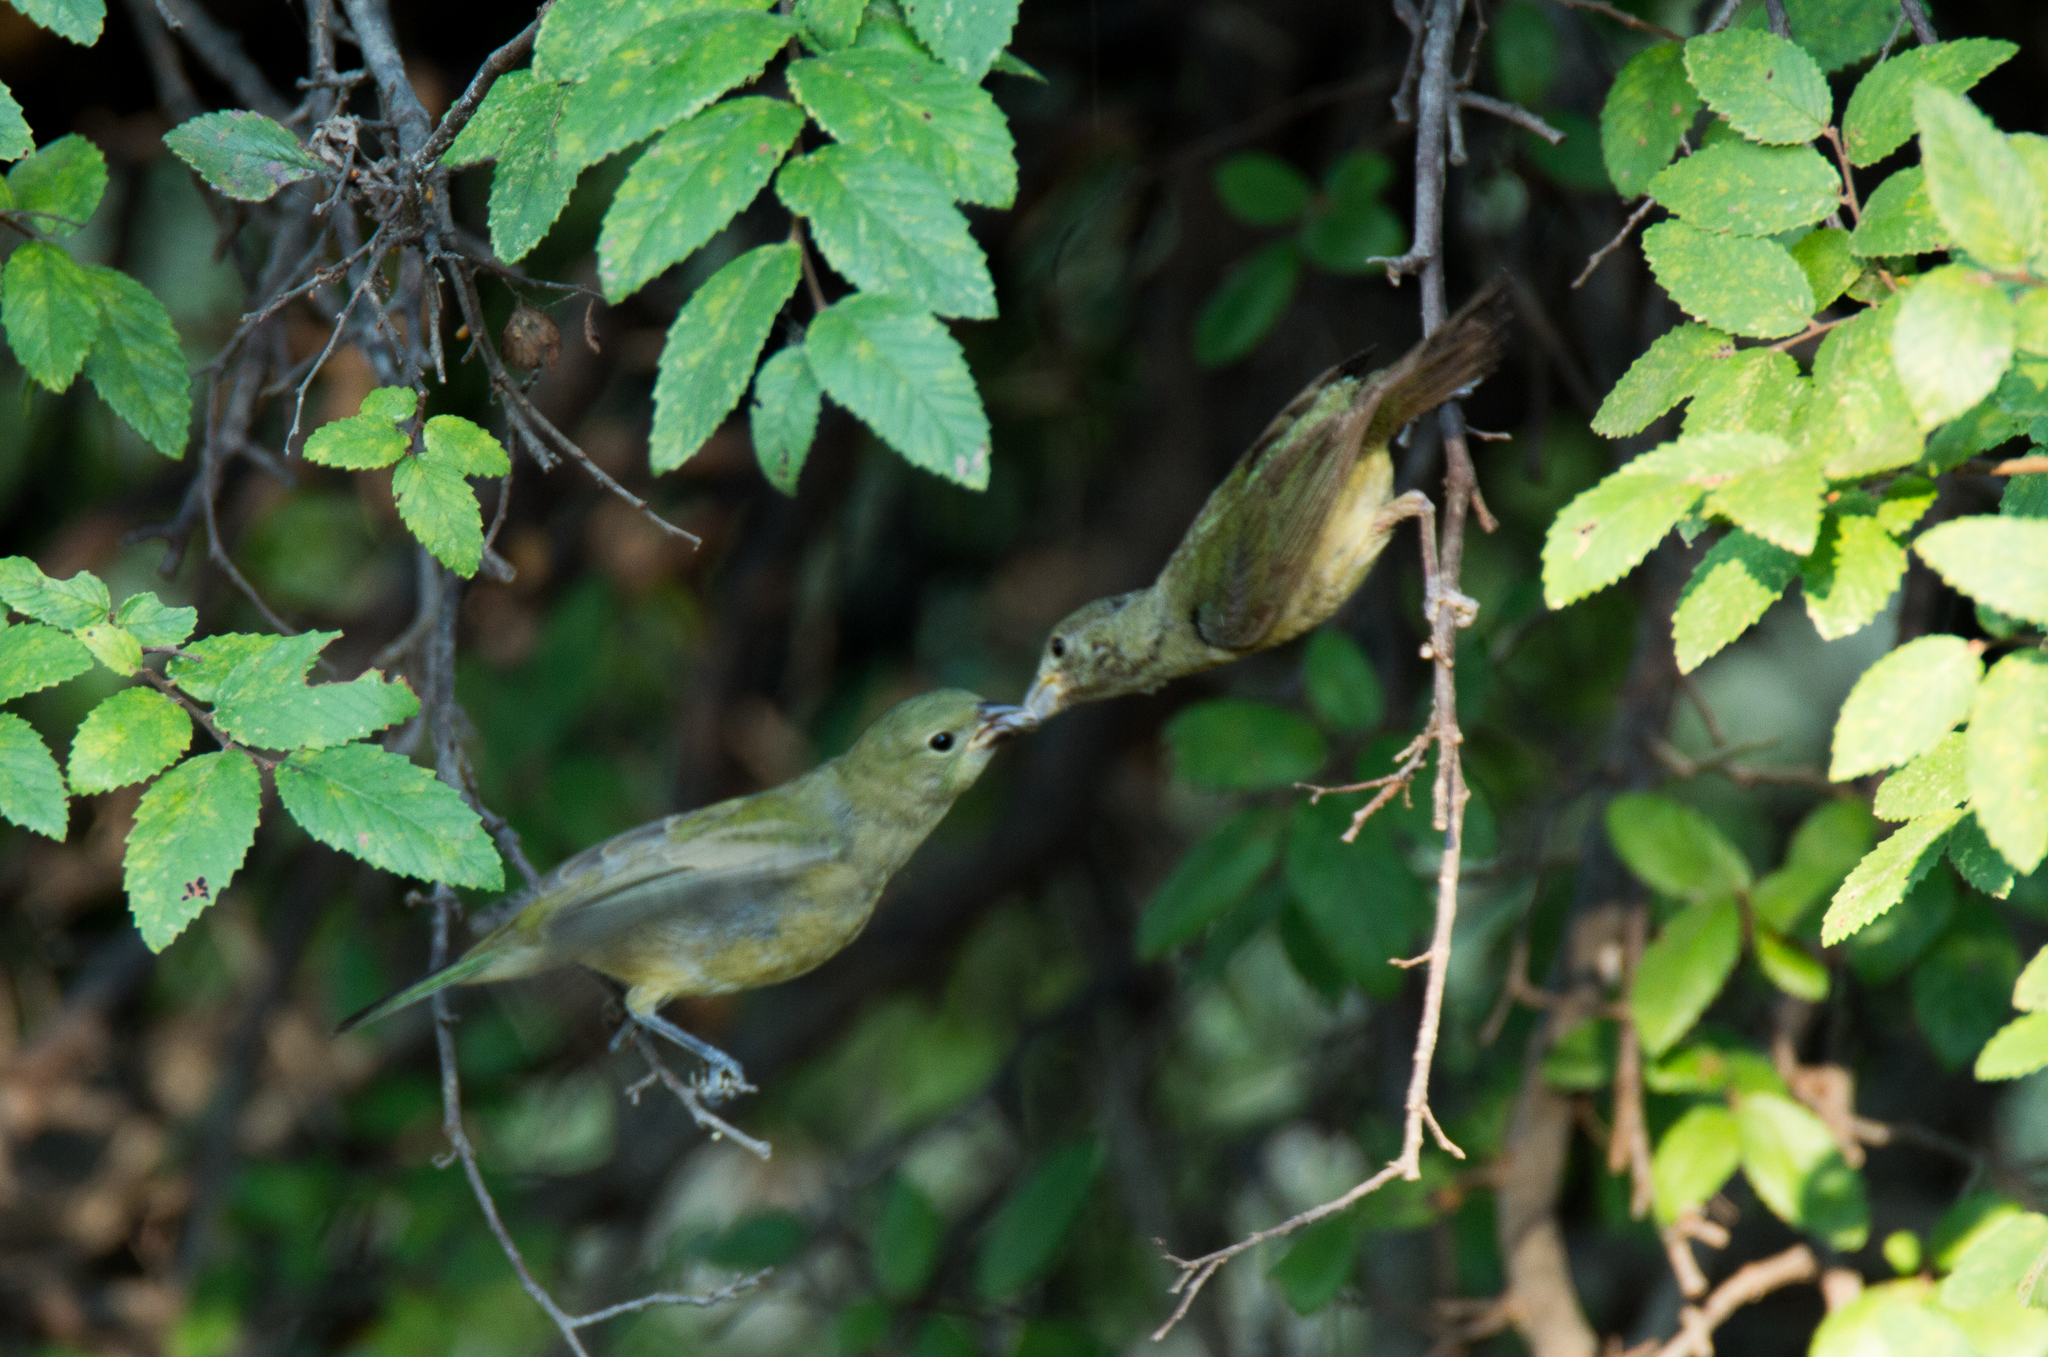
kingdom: Animalia
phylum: Chordata
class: Aves
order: Passeriformes
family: Cardinalidae
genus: Passerina
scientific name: Passerina ciris
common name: Painted bunting
